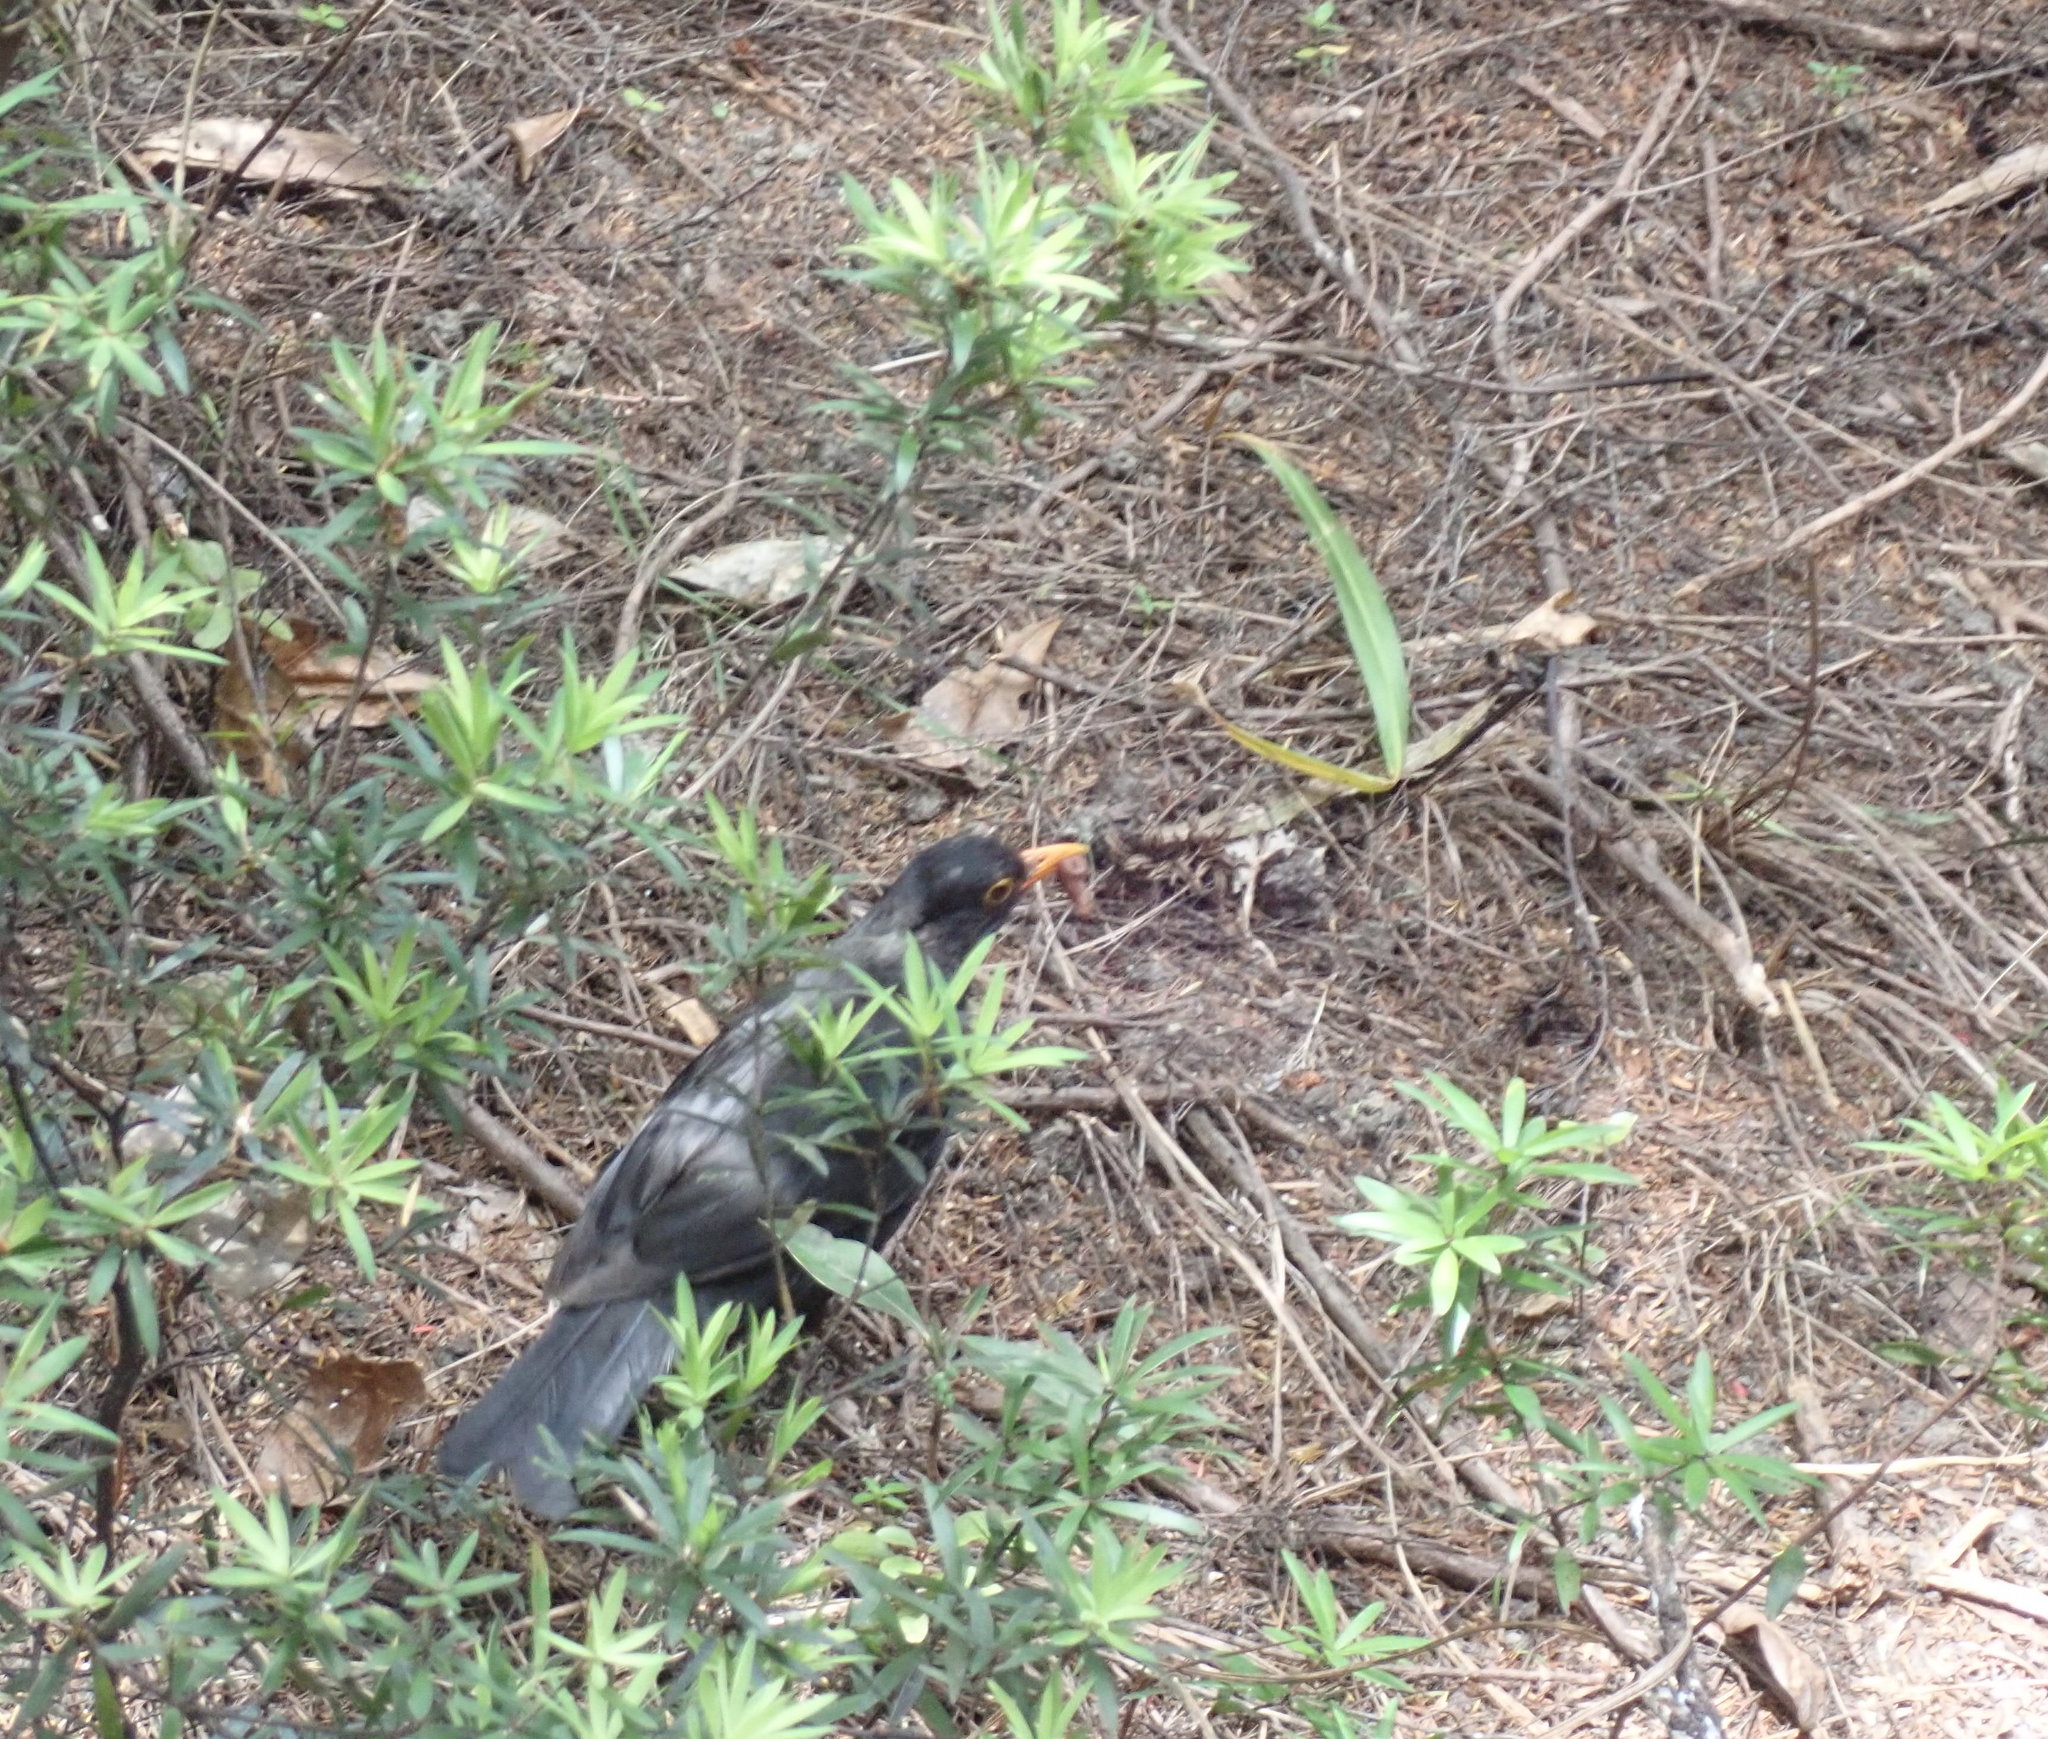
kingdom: Animalia
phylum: Chordata
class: Aves
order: Passeriformes
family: Turdidae
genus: Turdus
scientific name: Turdus merula
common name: Common blackbird
